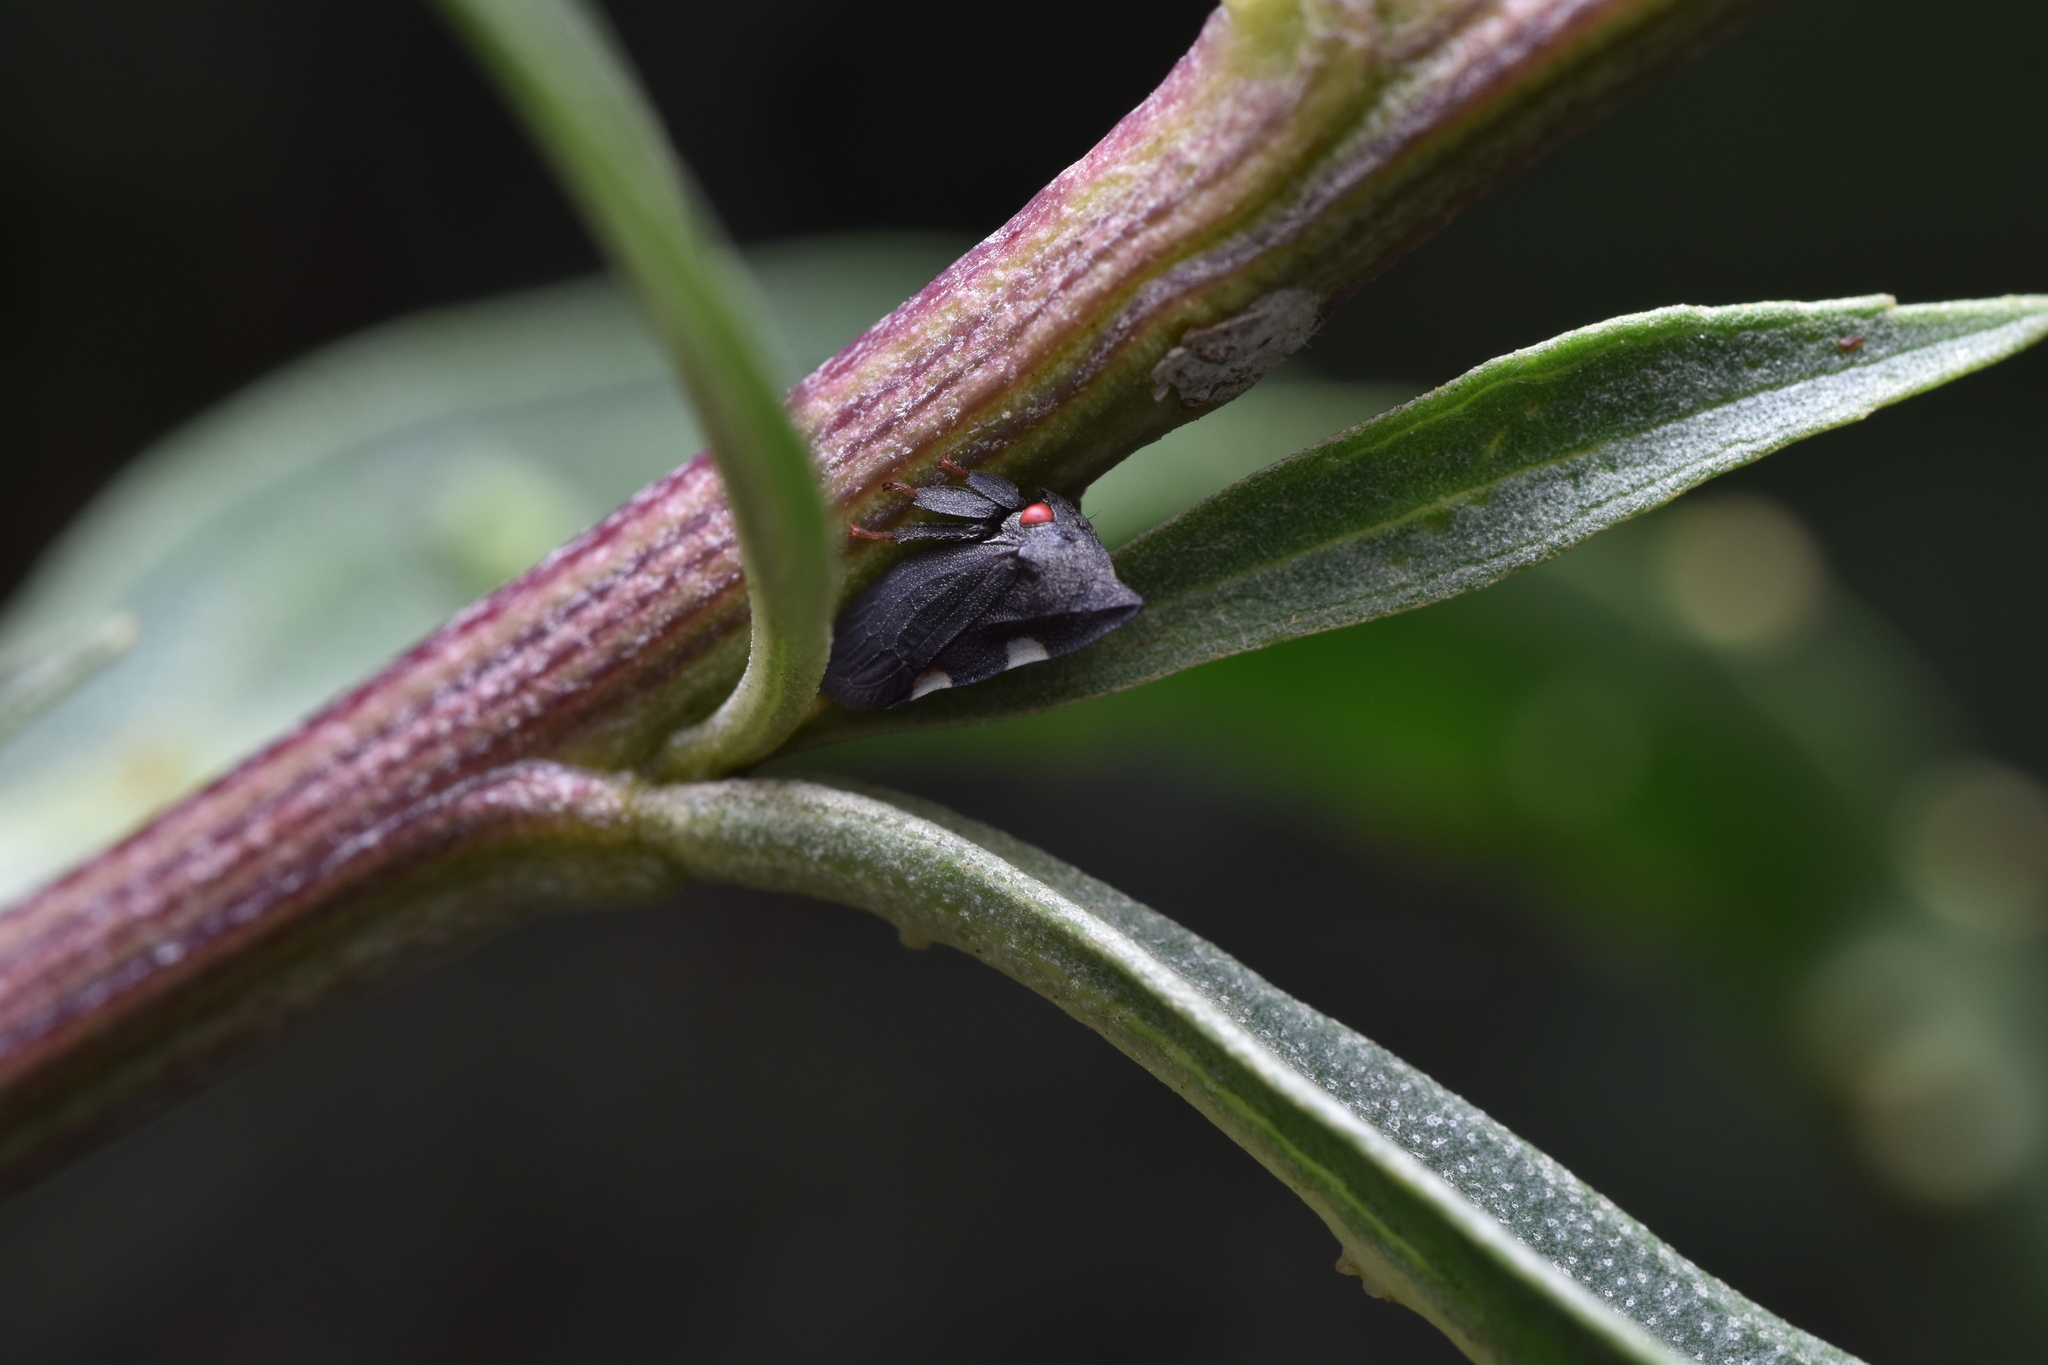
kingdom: Animalia
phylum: Arthropoda
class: Insecta
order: Hemiptera
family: Membracidae
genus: Enchenopa
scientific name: Enchenopa quadricolor
